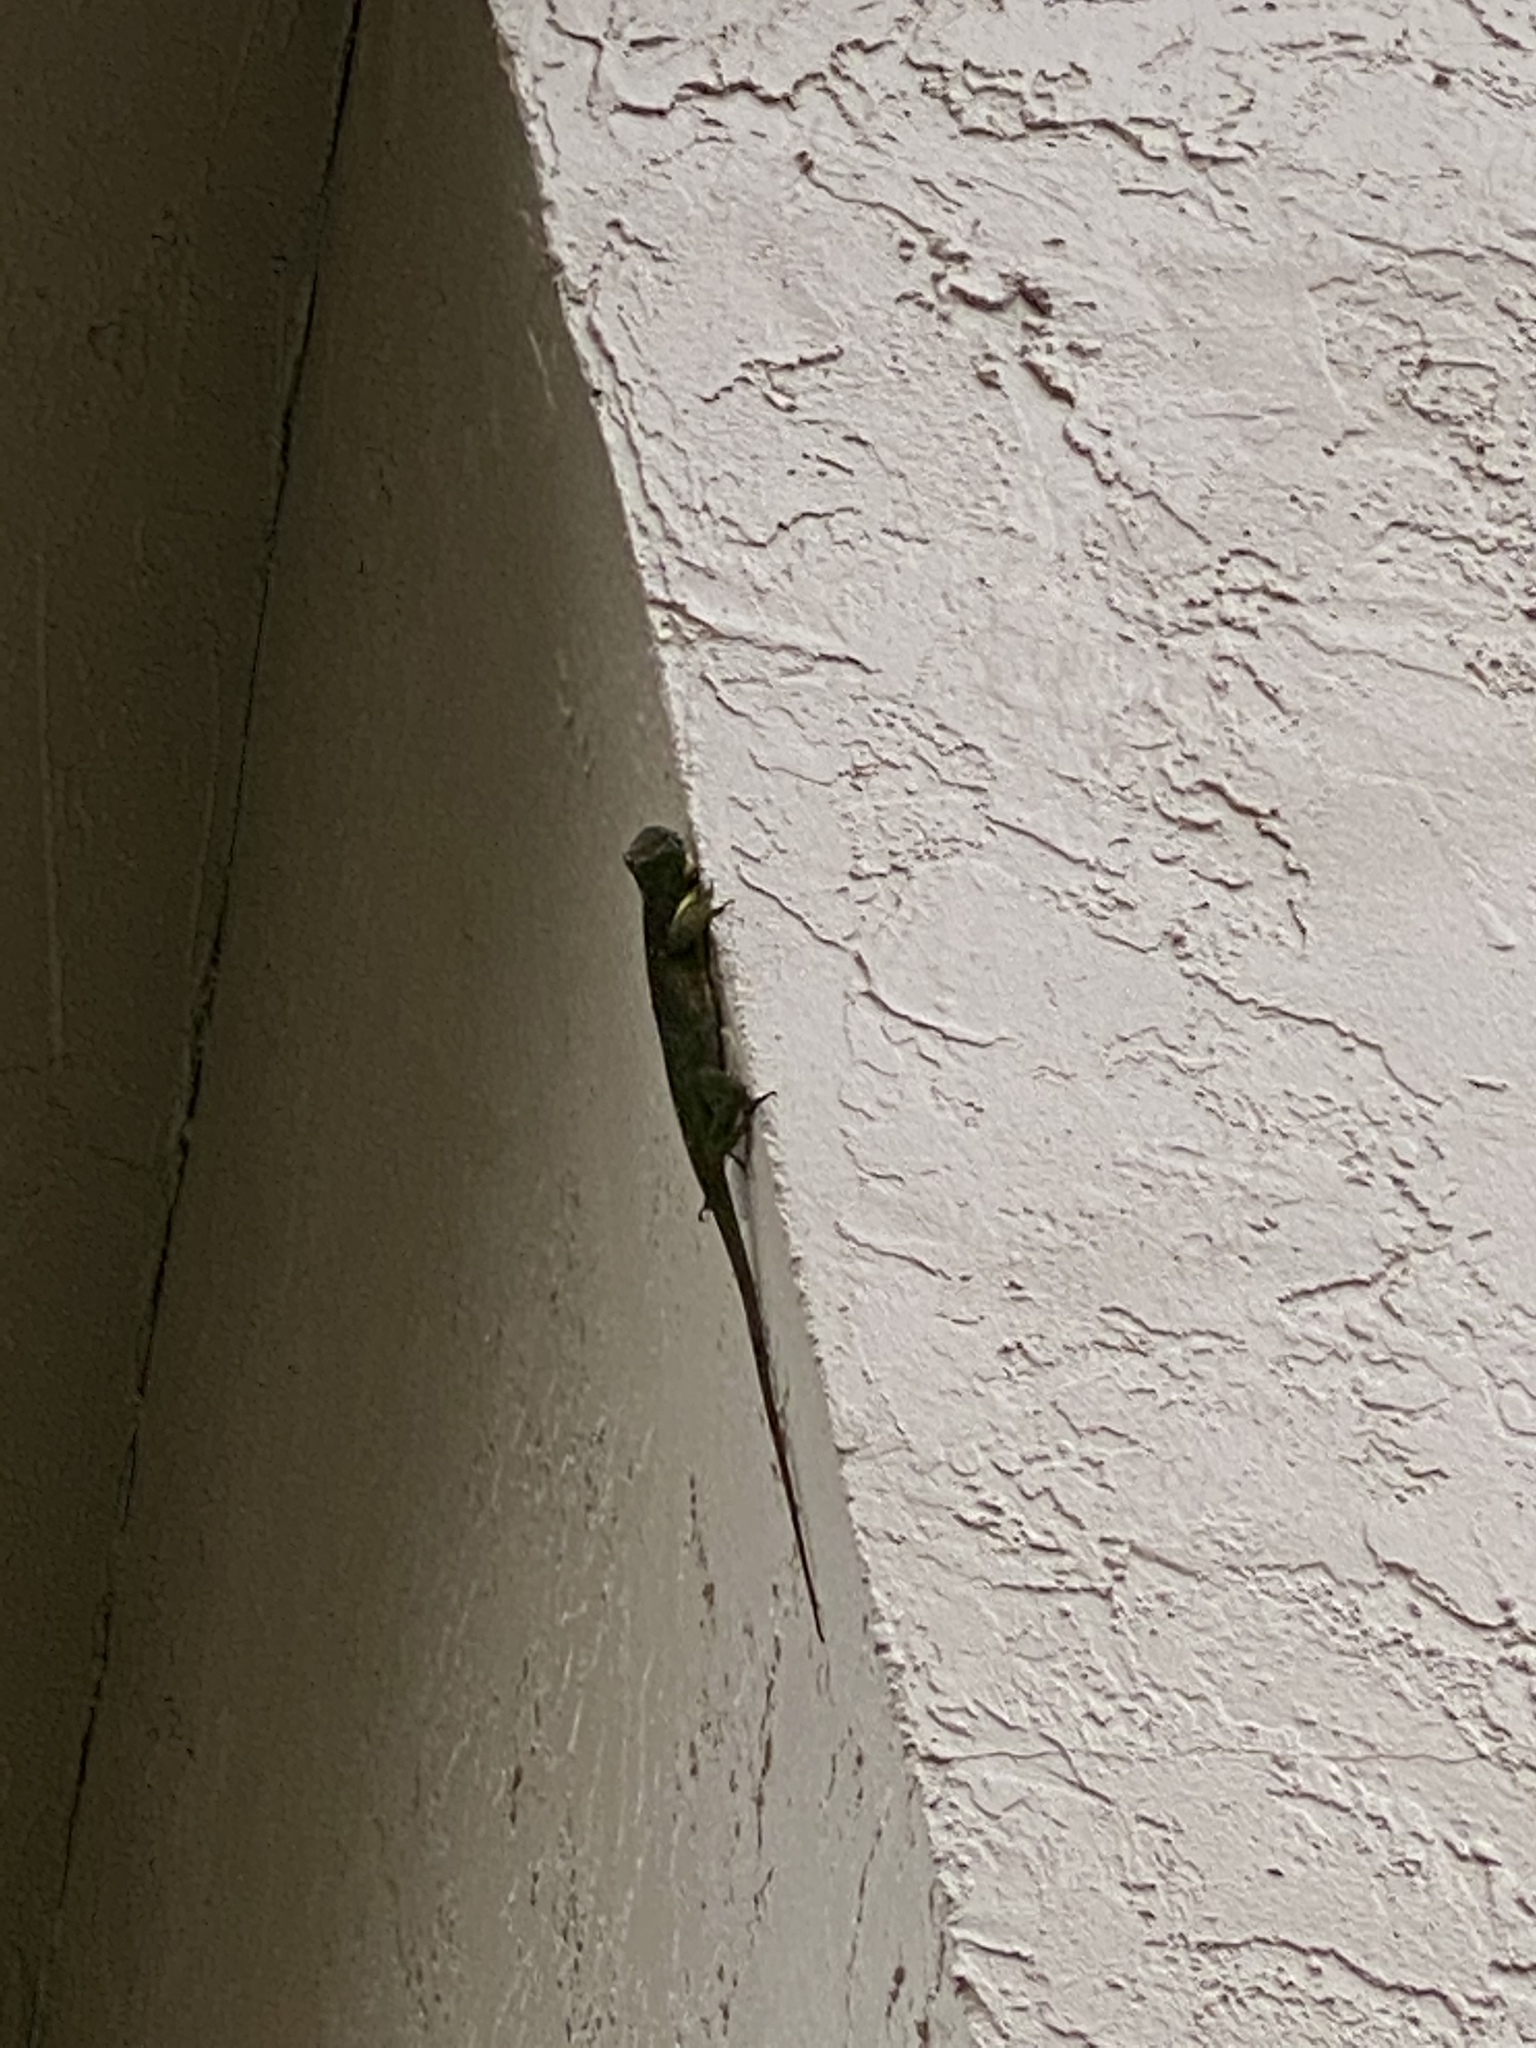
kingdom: Animalia
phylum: Chordata
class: Squamata
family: Dactyloidae
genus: Anolis
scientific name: Anolis equestris
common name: Knight anole
